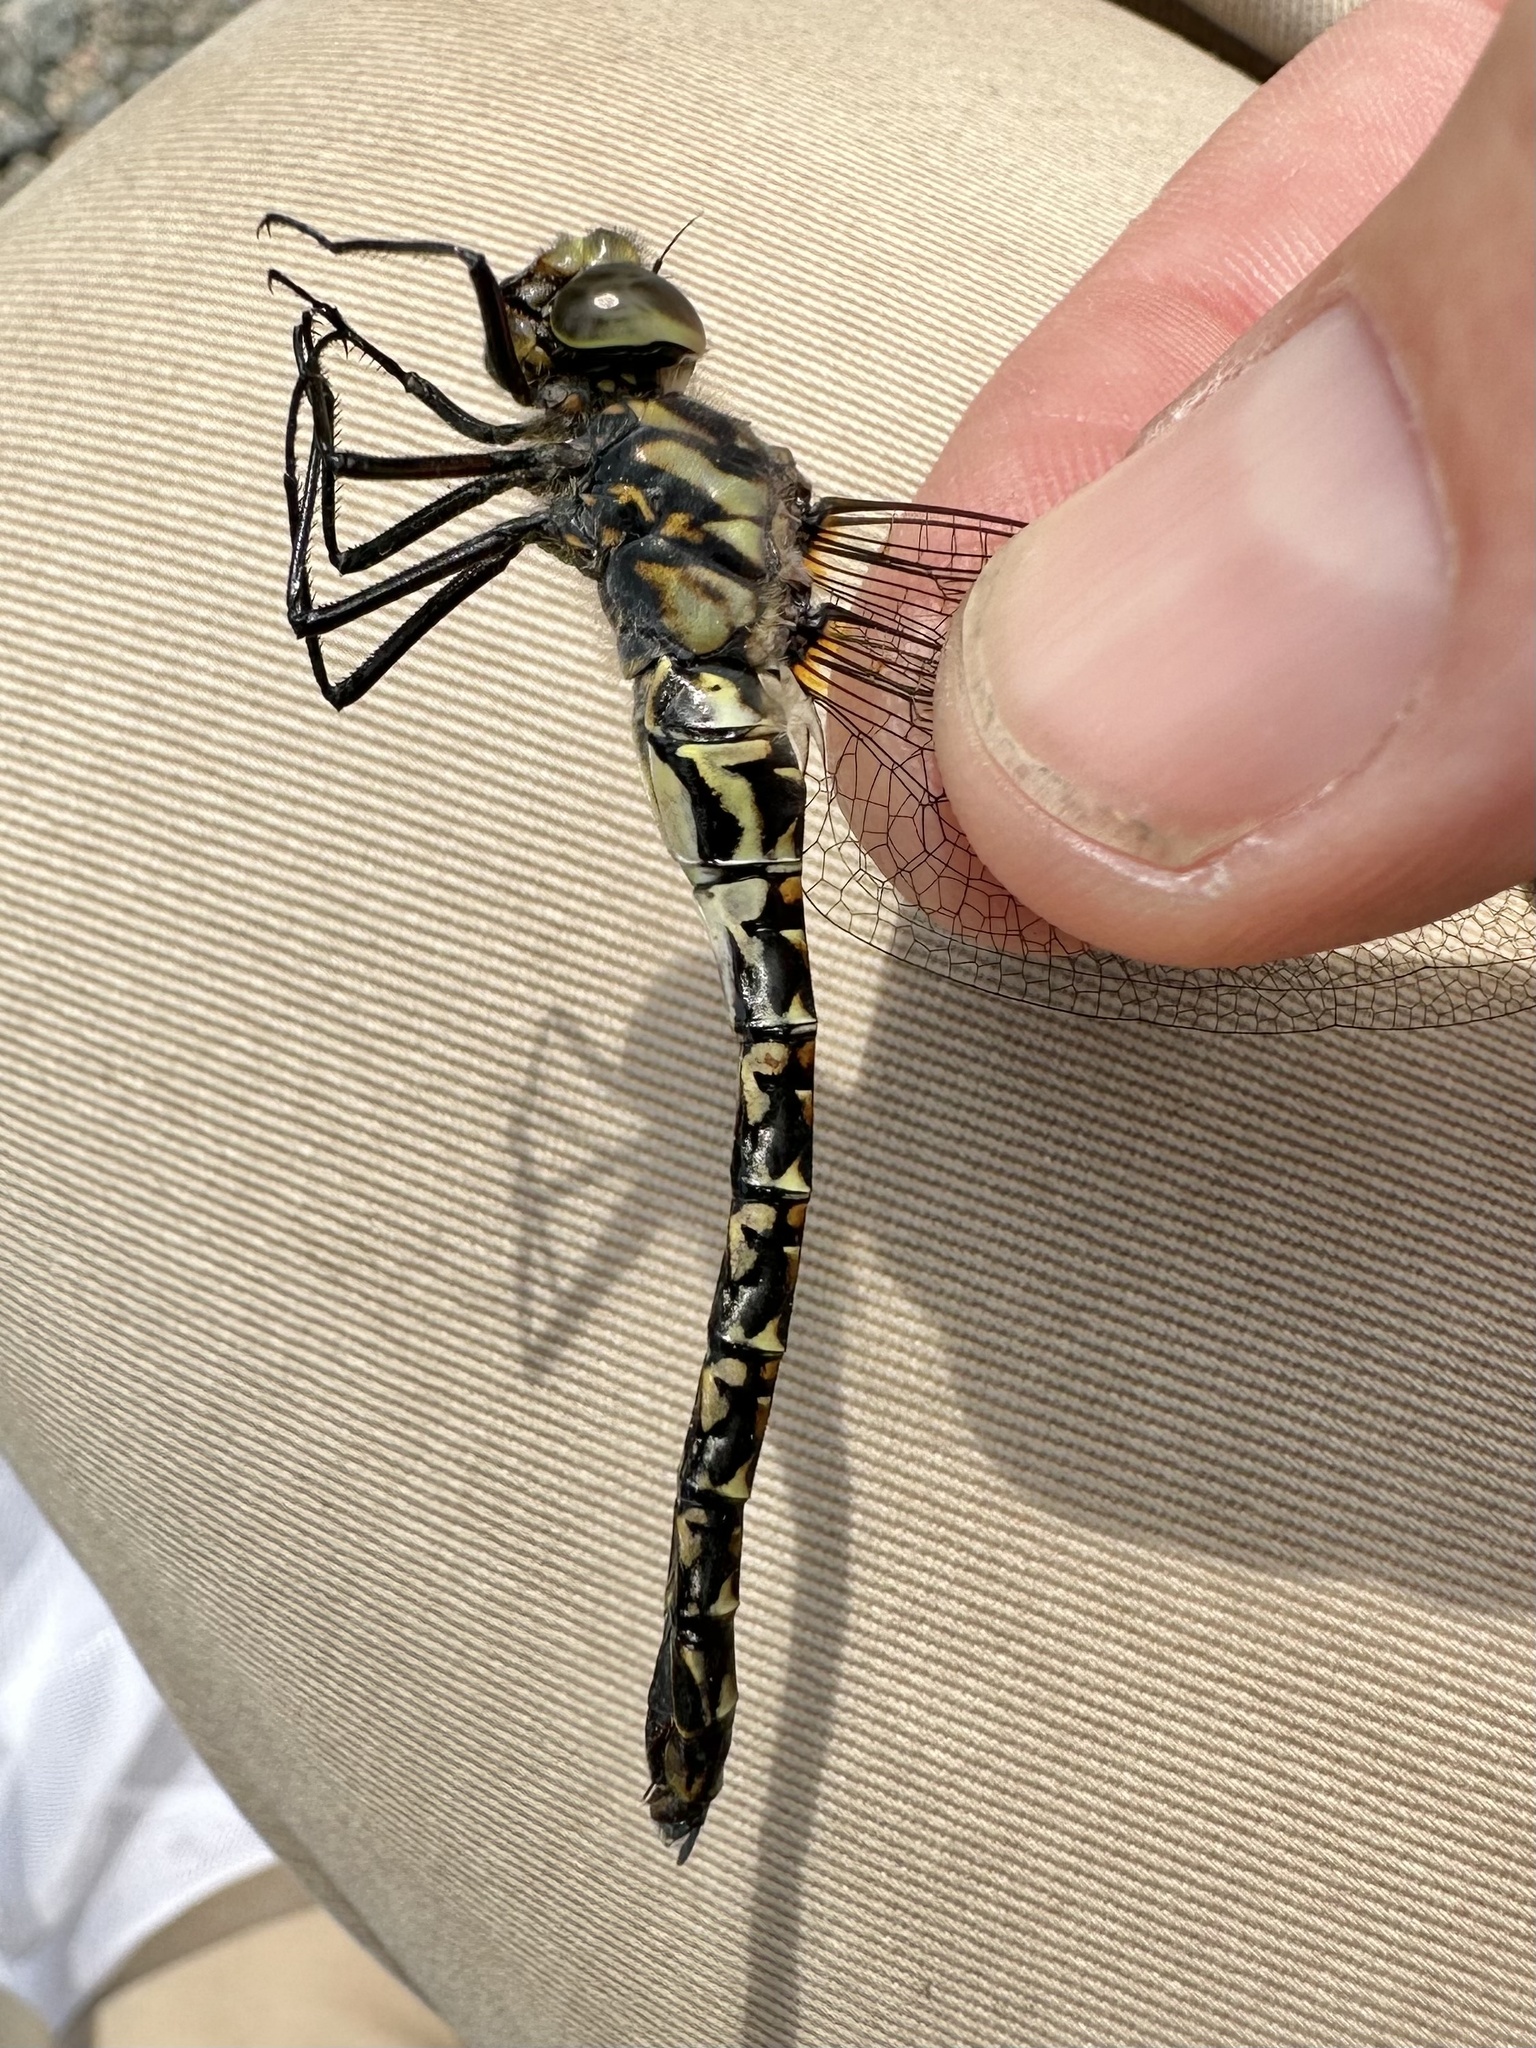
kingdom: Animalia
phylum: Arthropoda
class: Insecta
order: Odonata
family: Aeshnidae
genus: Gomphaeschna
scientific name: Gomphaeschna furcillata
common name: Harlequin darner
